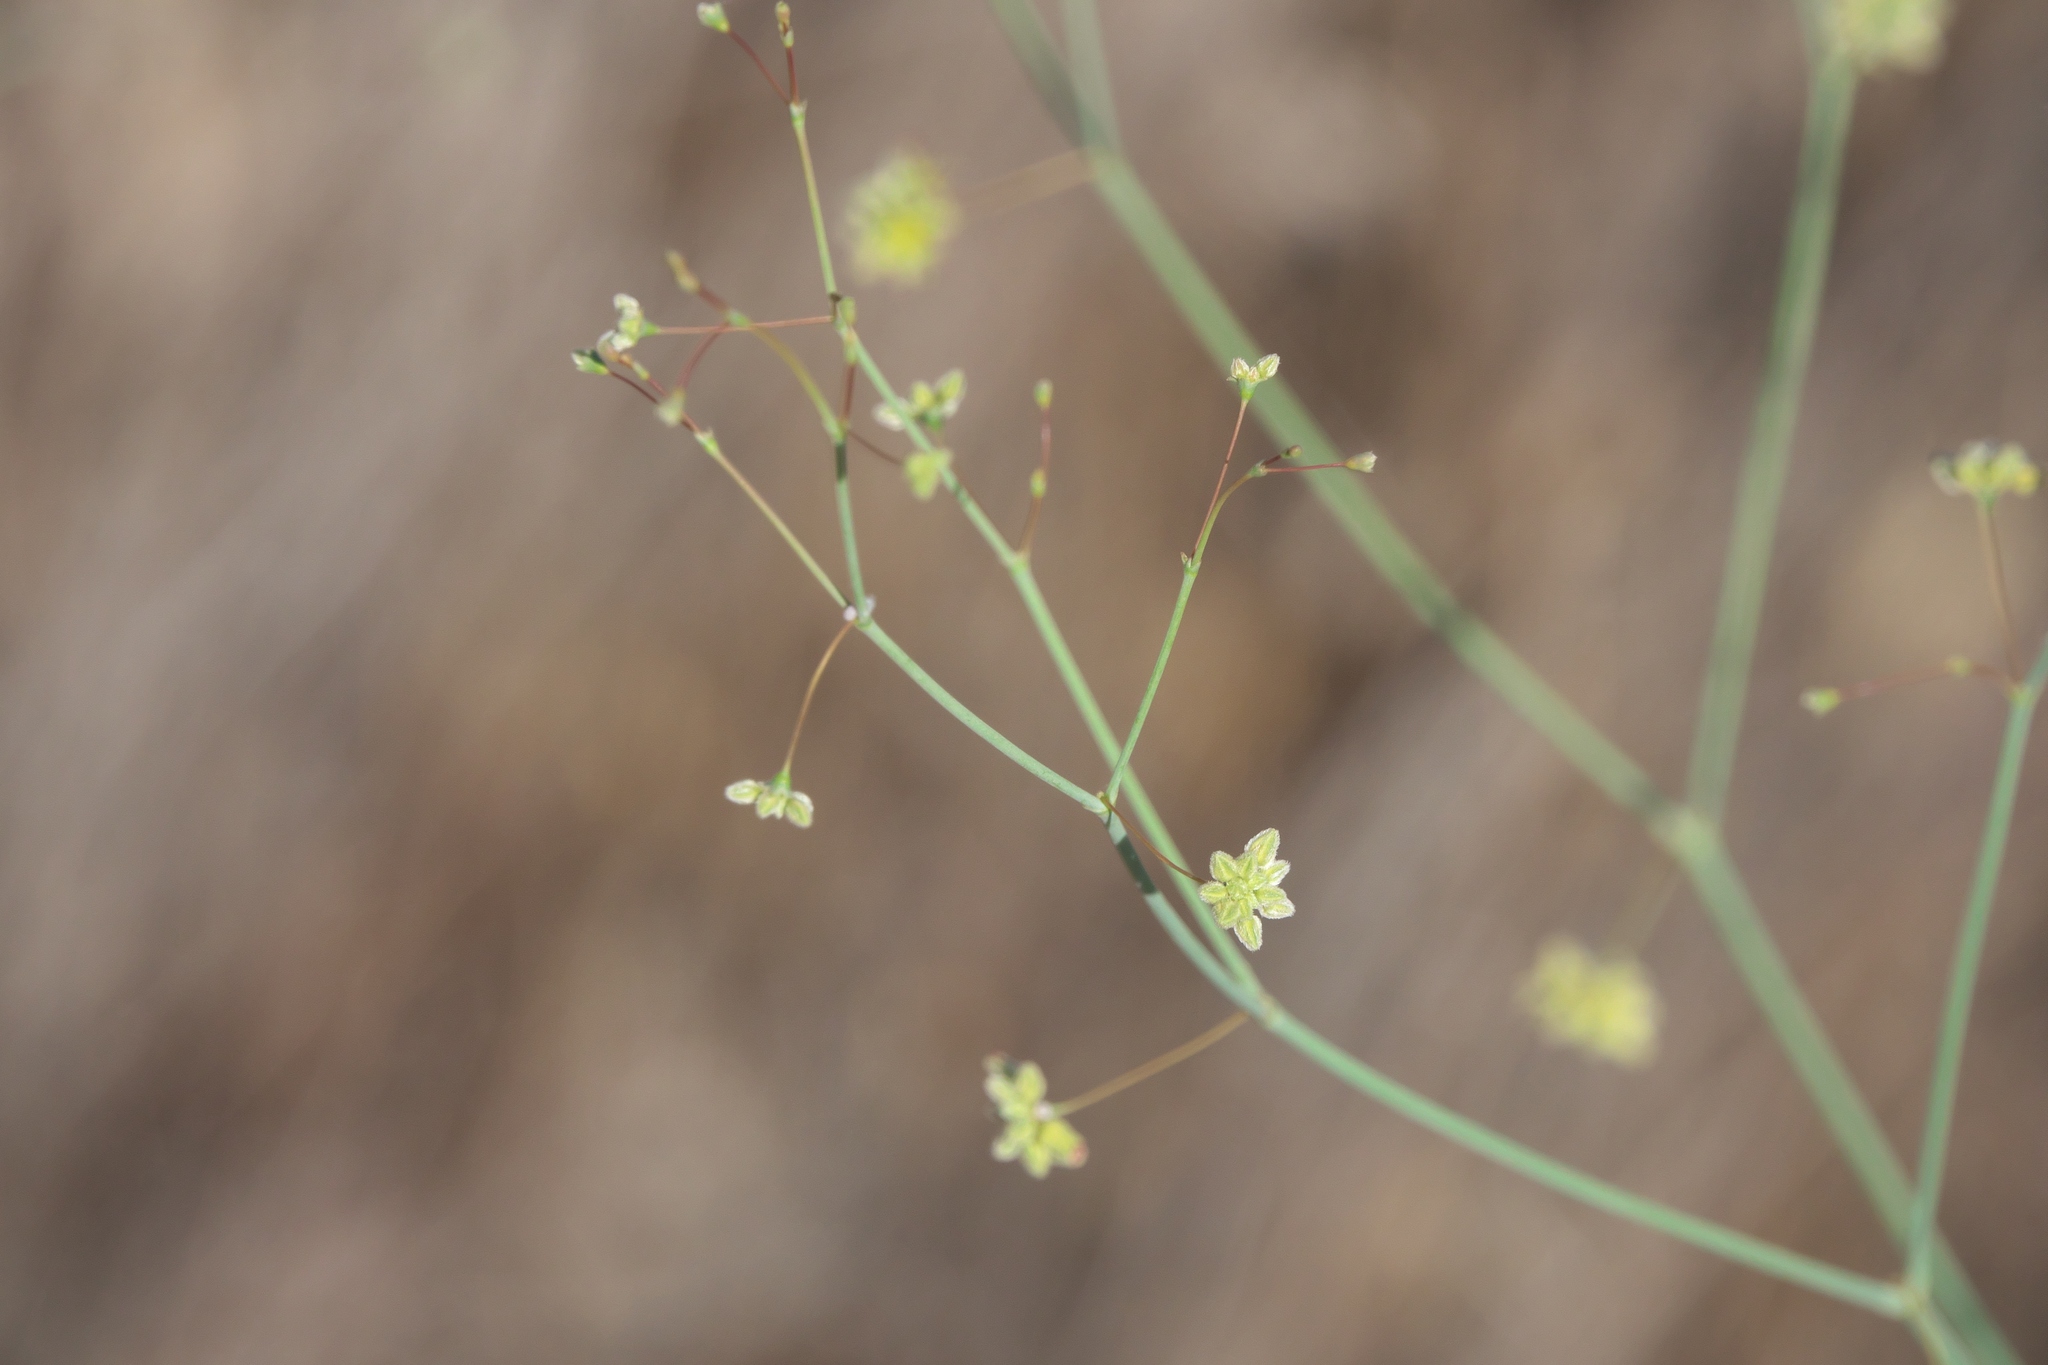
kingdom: Plantae
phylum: Tracheophyta
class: Magnoliopsida
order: Caryophyllales
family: Polygonaceae
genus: Eriogonum
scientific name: Eriogonum inflatum
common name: Desert trumpet
